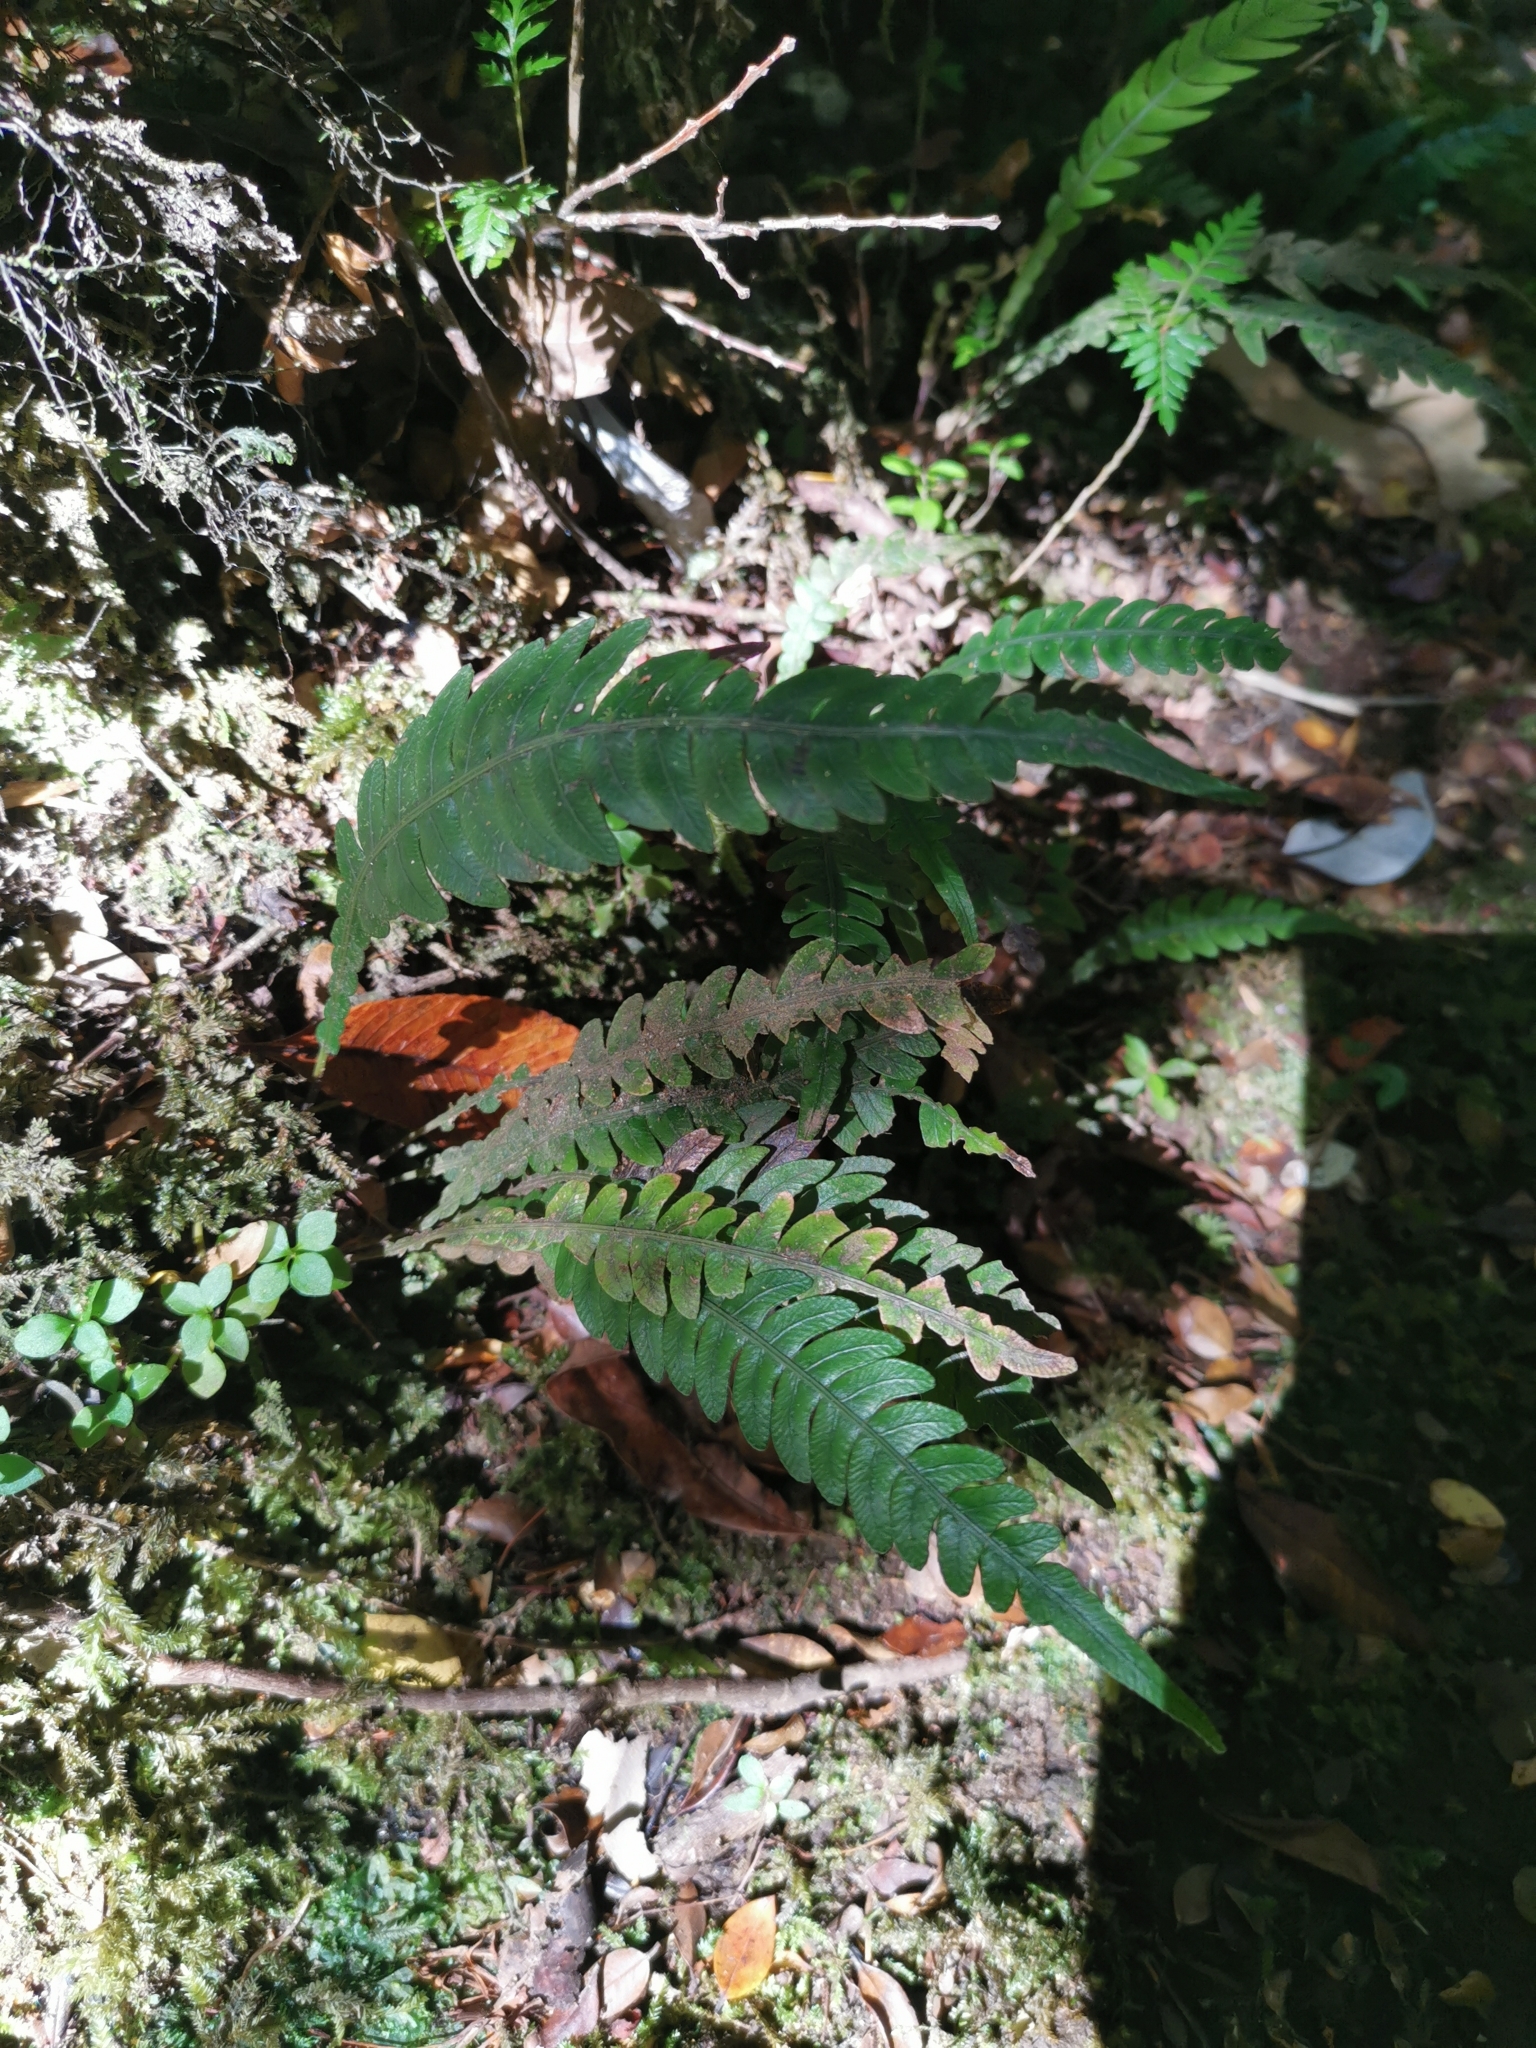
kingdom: Plantae
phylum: Tracheophyta
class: Polypodiopsida
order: Polypodiales
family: Blechnaceae
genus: Austroblechnum
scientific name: Austroblechnum lechleri
